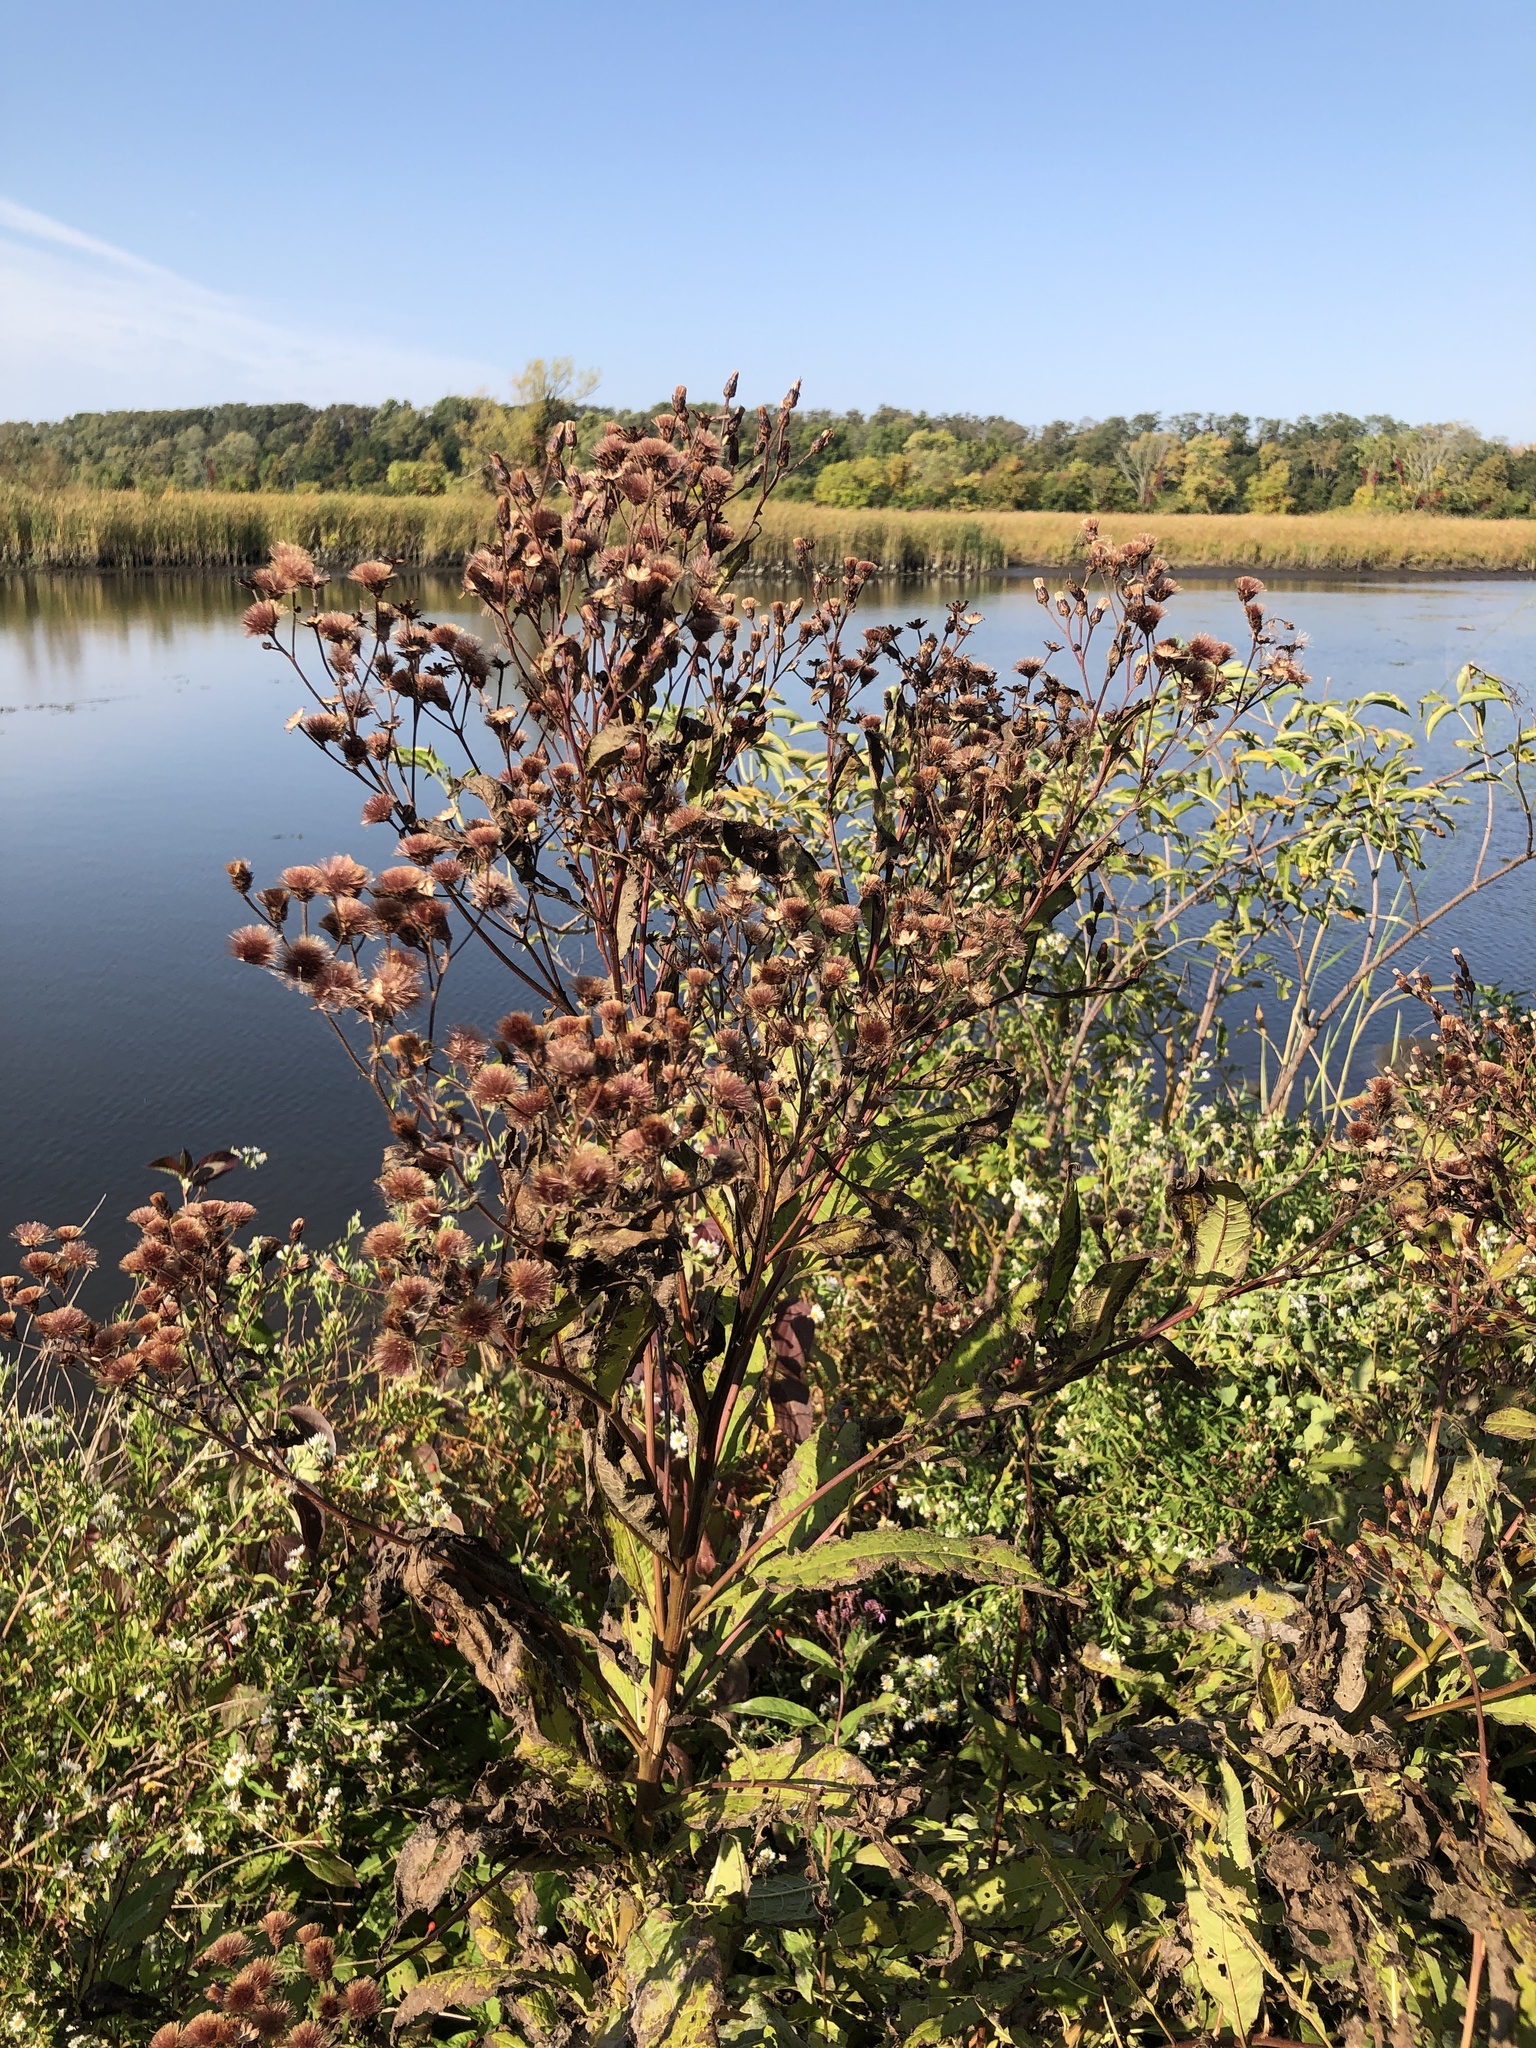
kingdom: Plantae
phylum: Tracheophyta
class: Magnoliopsida
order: Asterales
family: Asteraceae
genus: Vernonia
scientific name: Vernonia noveboracensis
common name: New york ironweed
